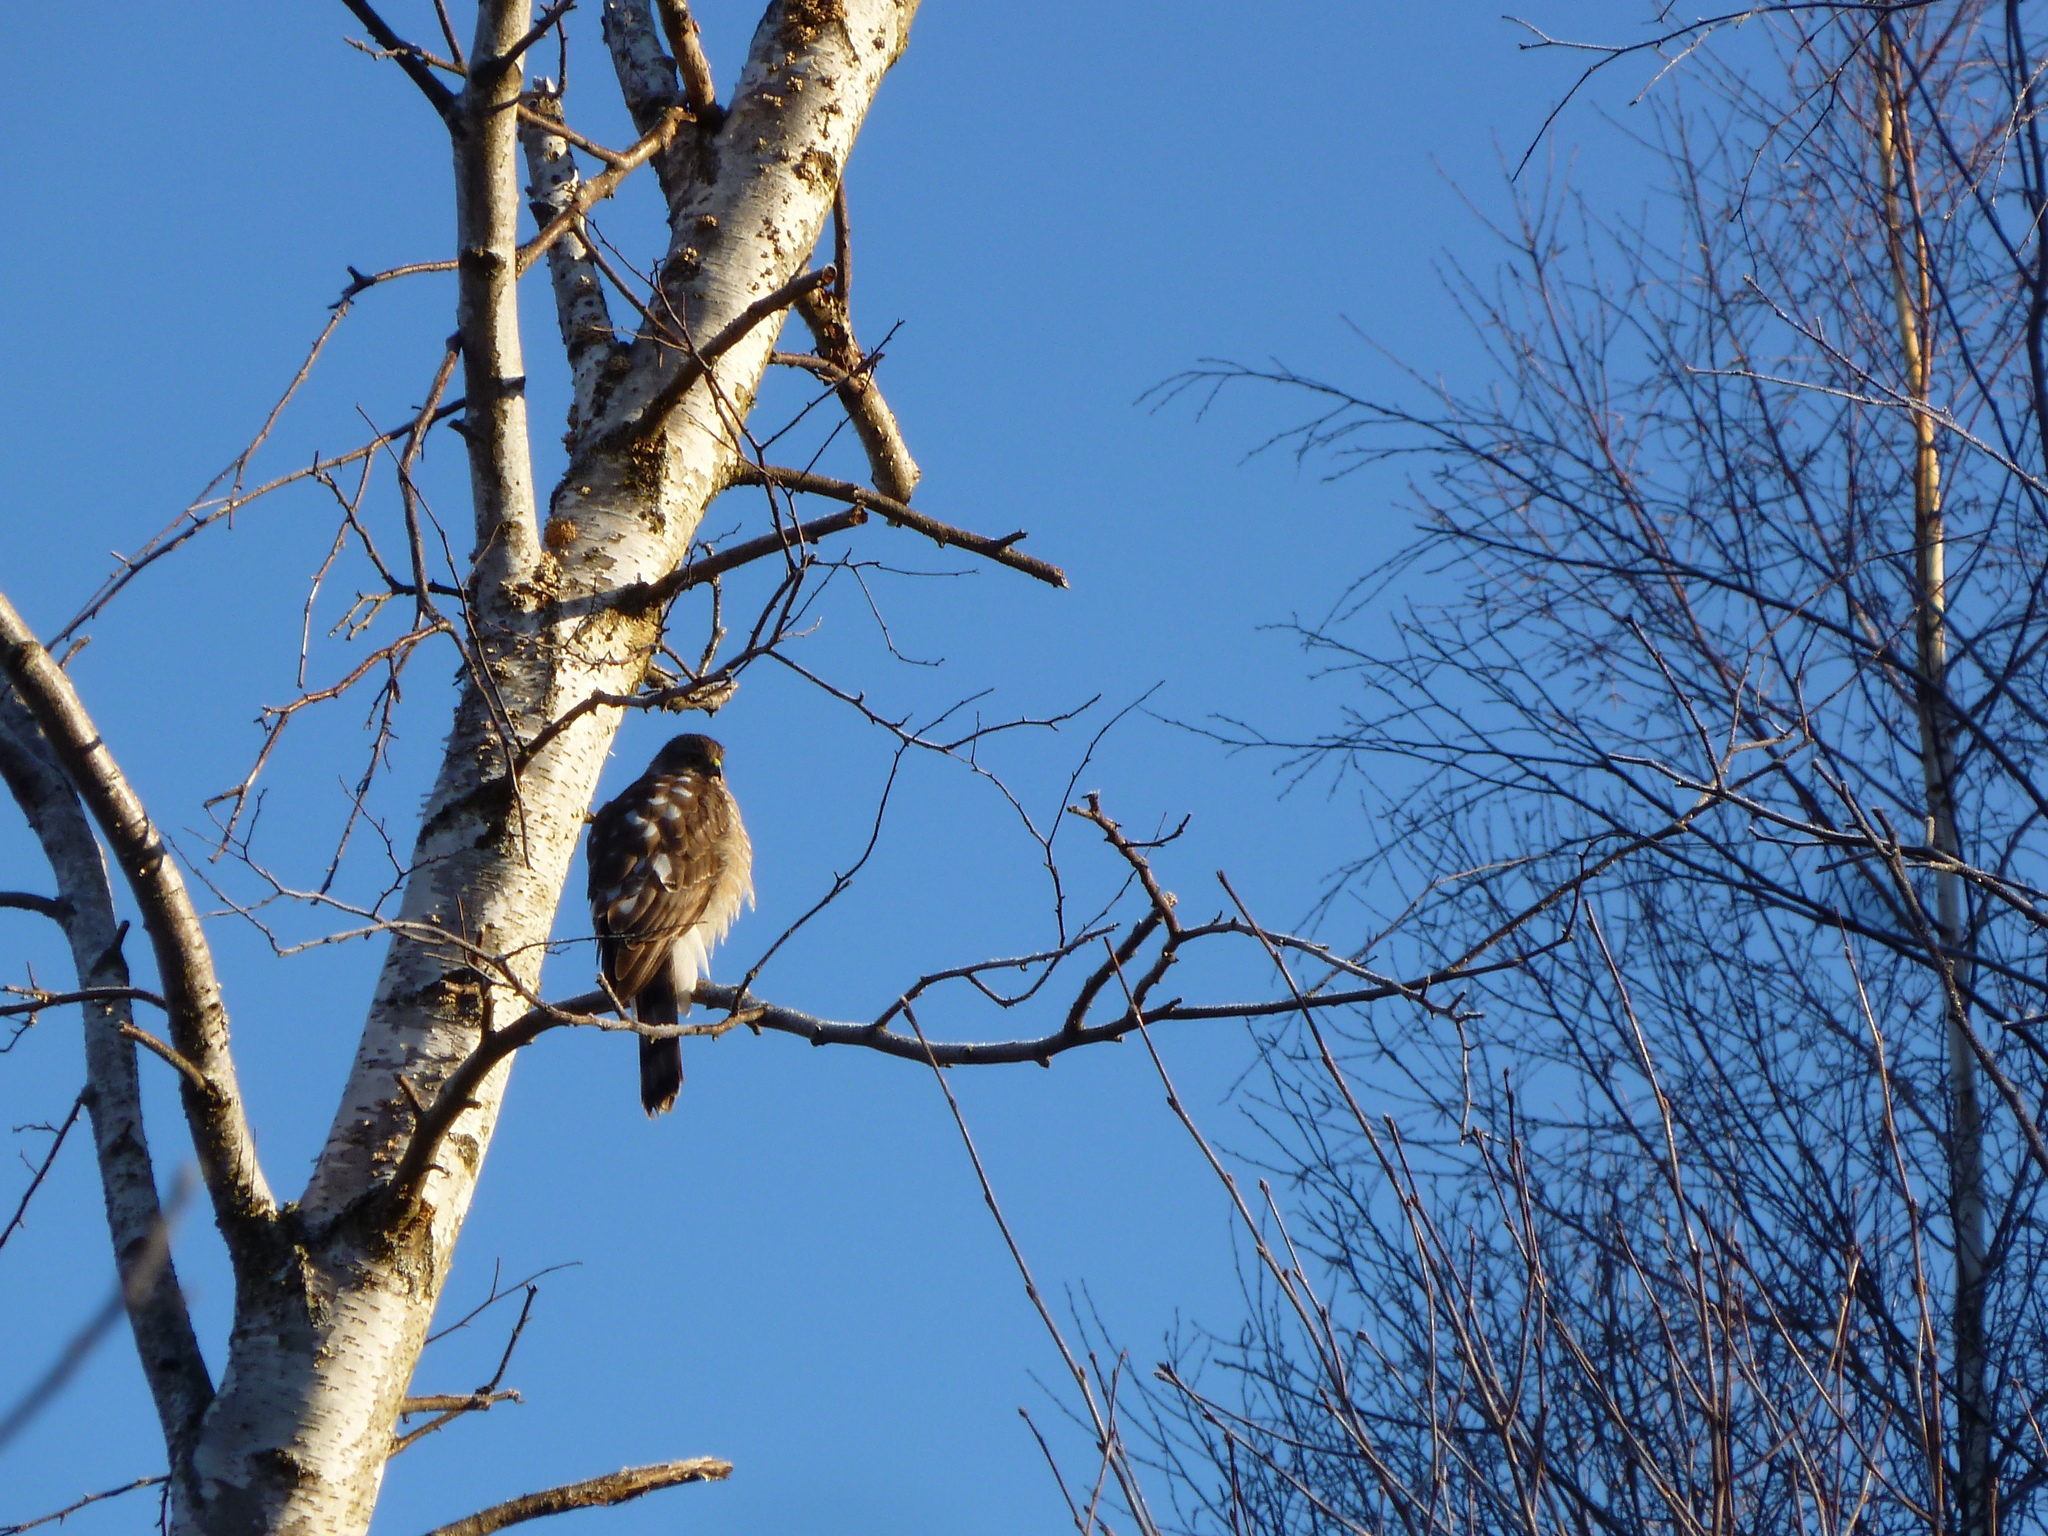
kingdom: Animalia
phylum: Chordata
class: Aves
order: Accipitriformes
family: Accipitridae
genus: Accipiter
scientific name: Accipiter striatus
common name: Sharp-shinned hawk
